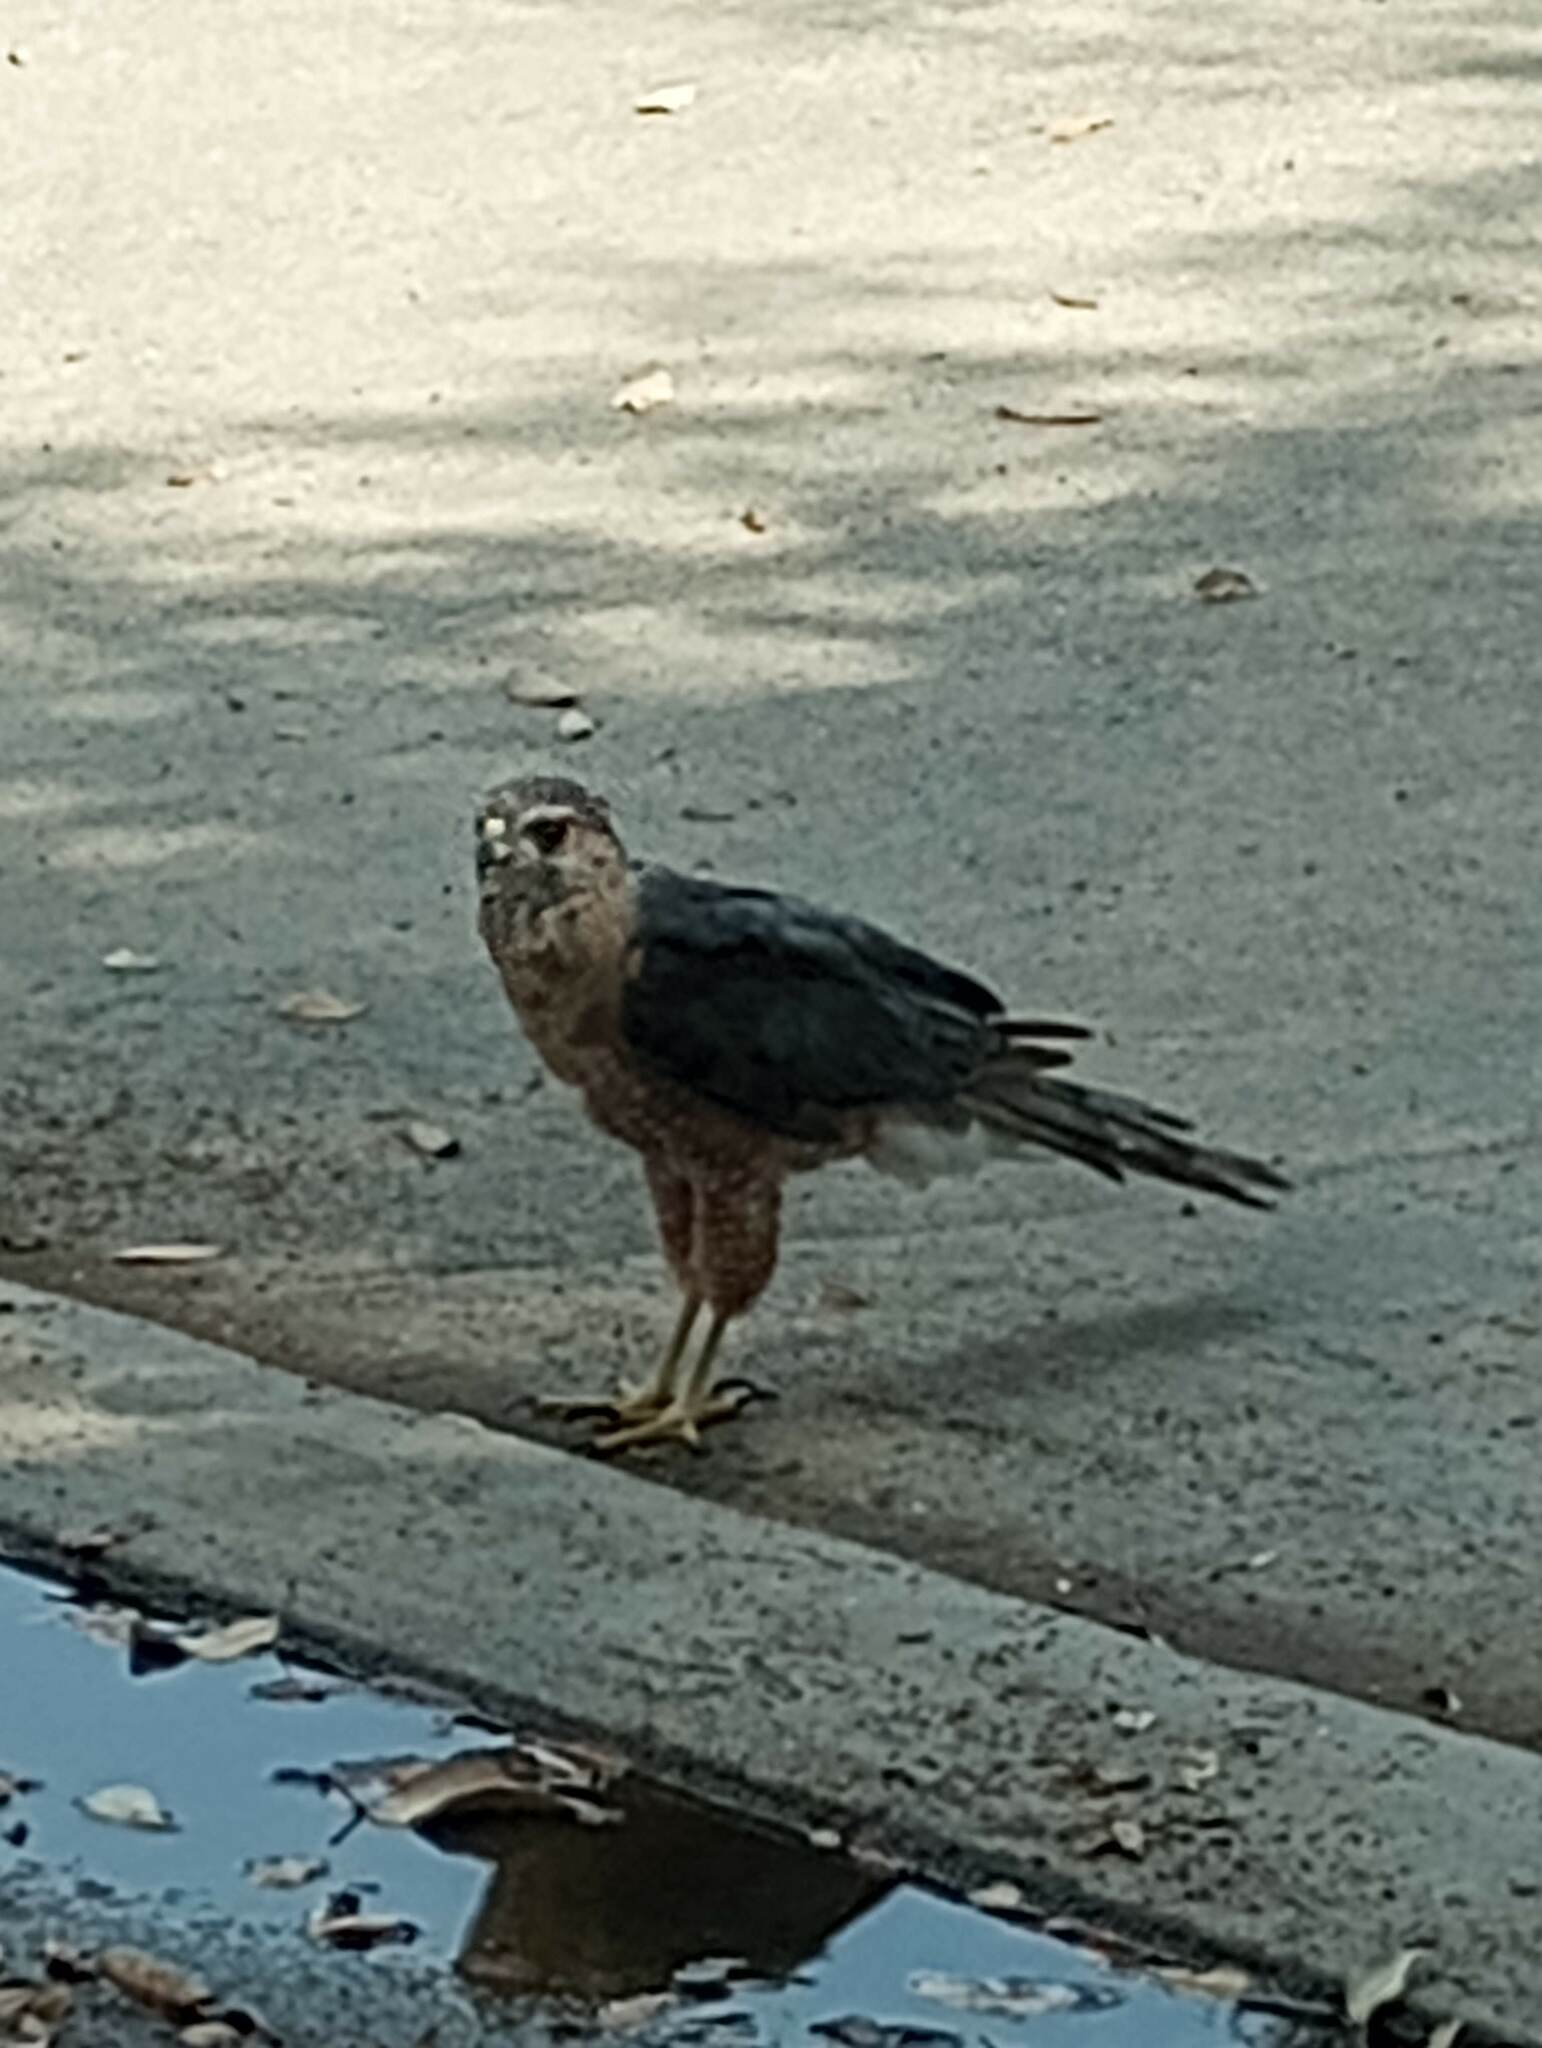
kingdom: Animalia
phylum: Chordata
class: Aves
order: Accipitriformes
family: Accipitridae
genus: Accipiter
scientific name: Accipiter cooperii
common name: Cooper's hawk
